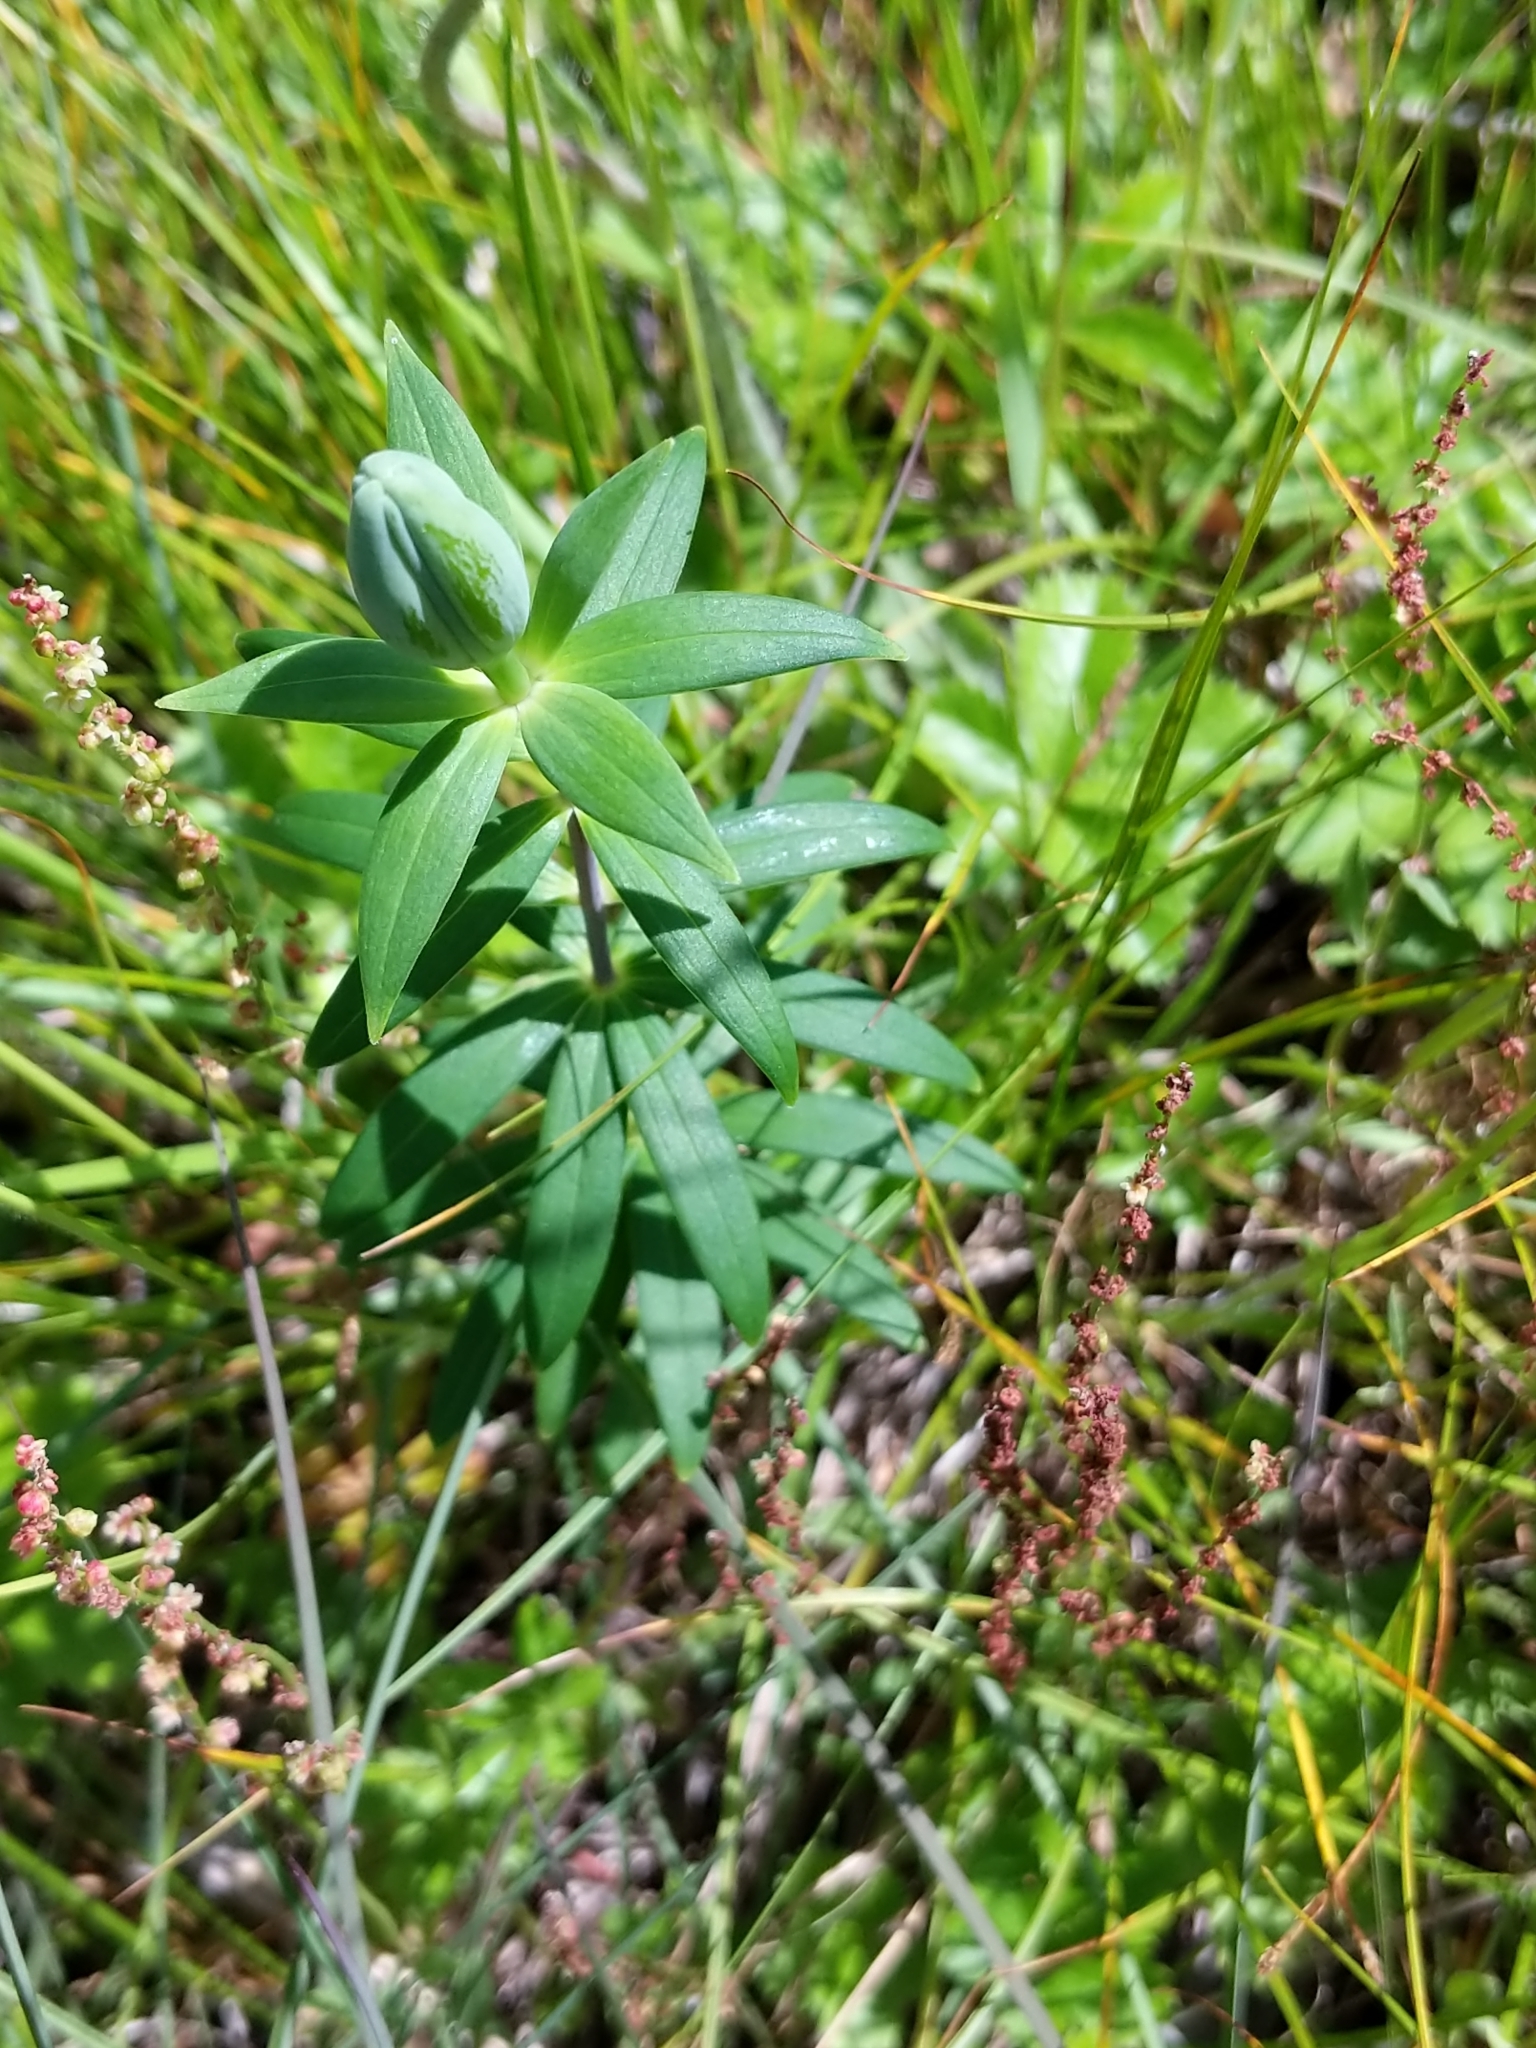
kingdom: Plantae
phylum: Tracheophyta
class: Liliopsida
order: Liliales
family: Liliaceae
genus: Lilium
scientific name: Lilium philadelphicum
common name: Red lily
